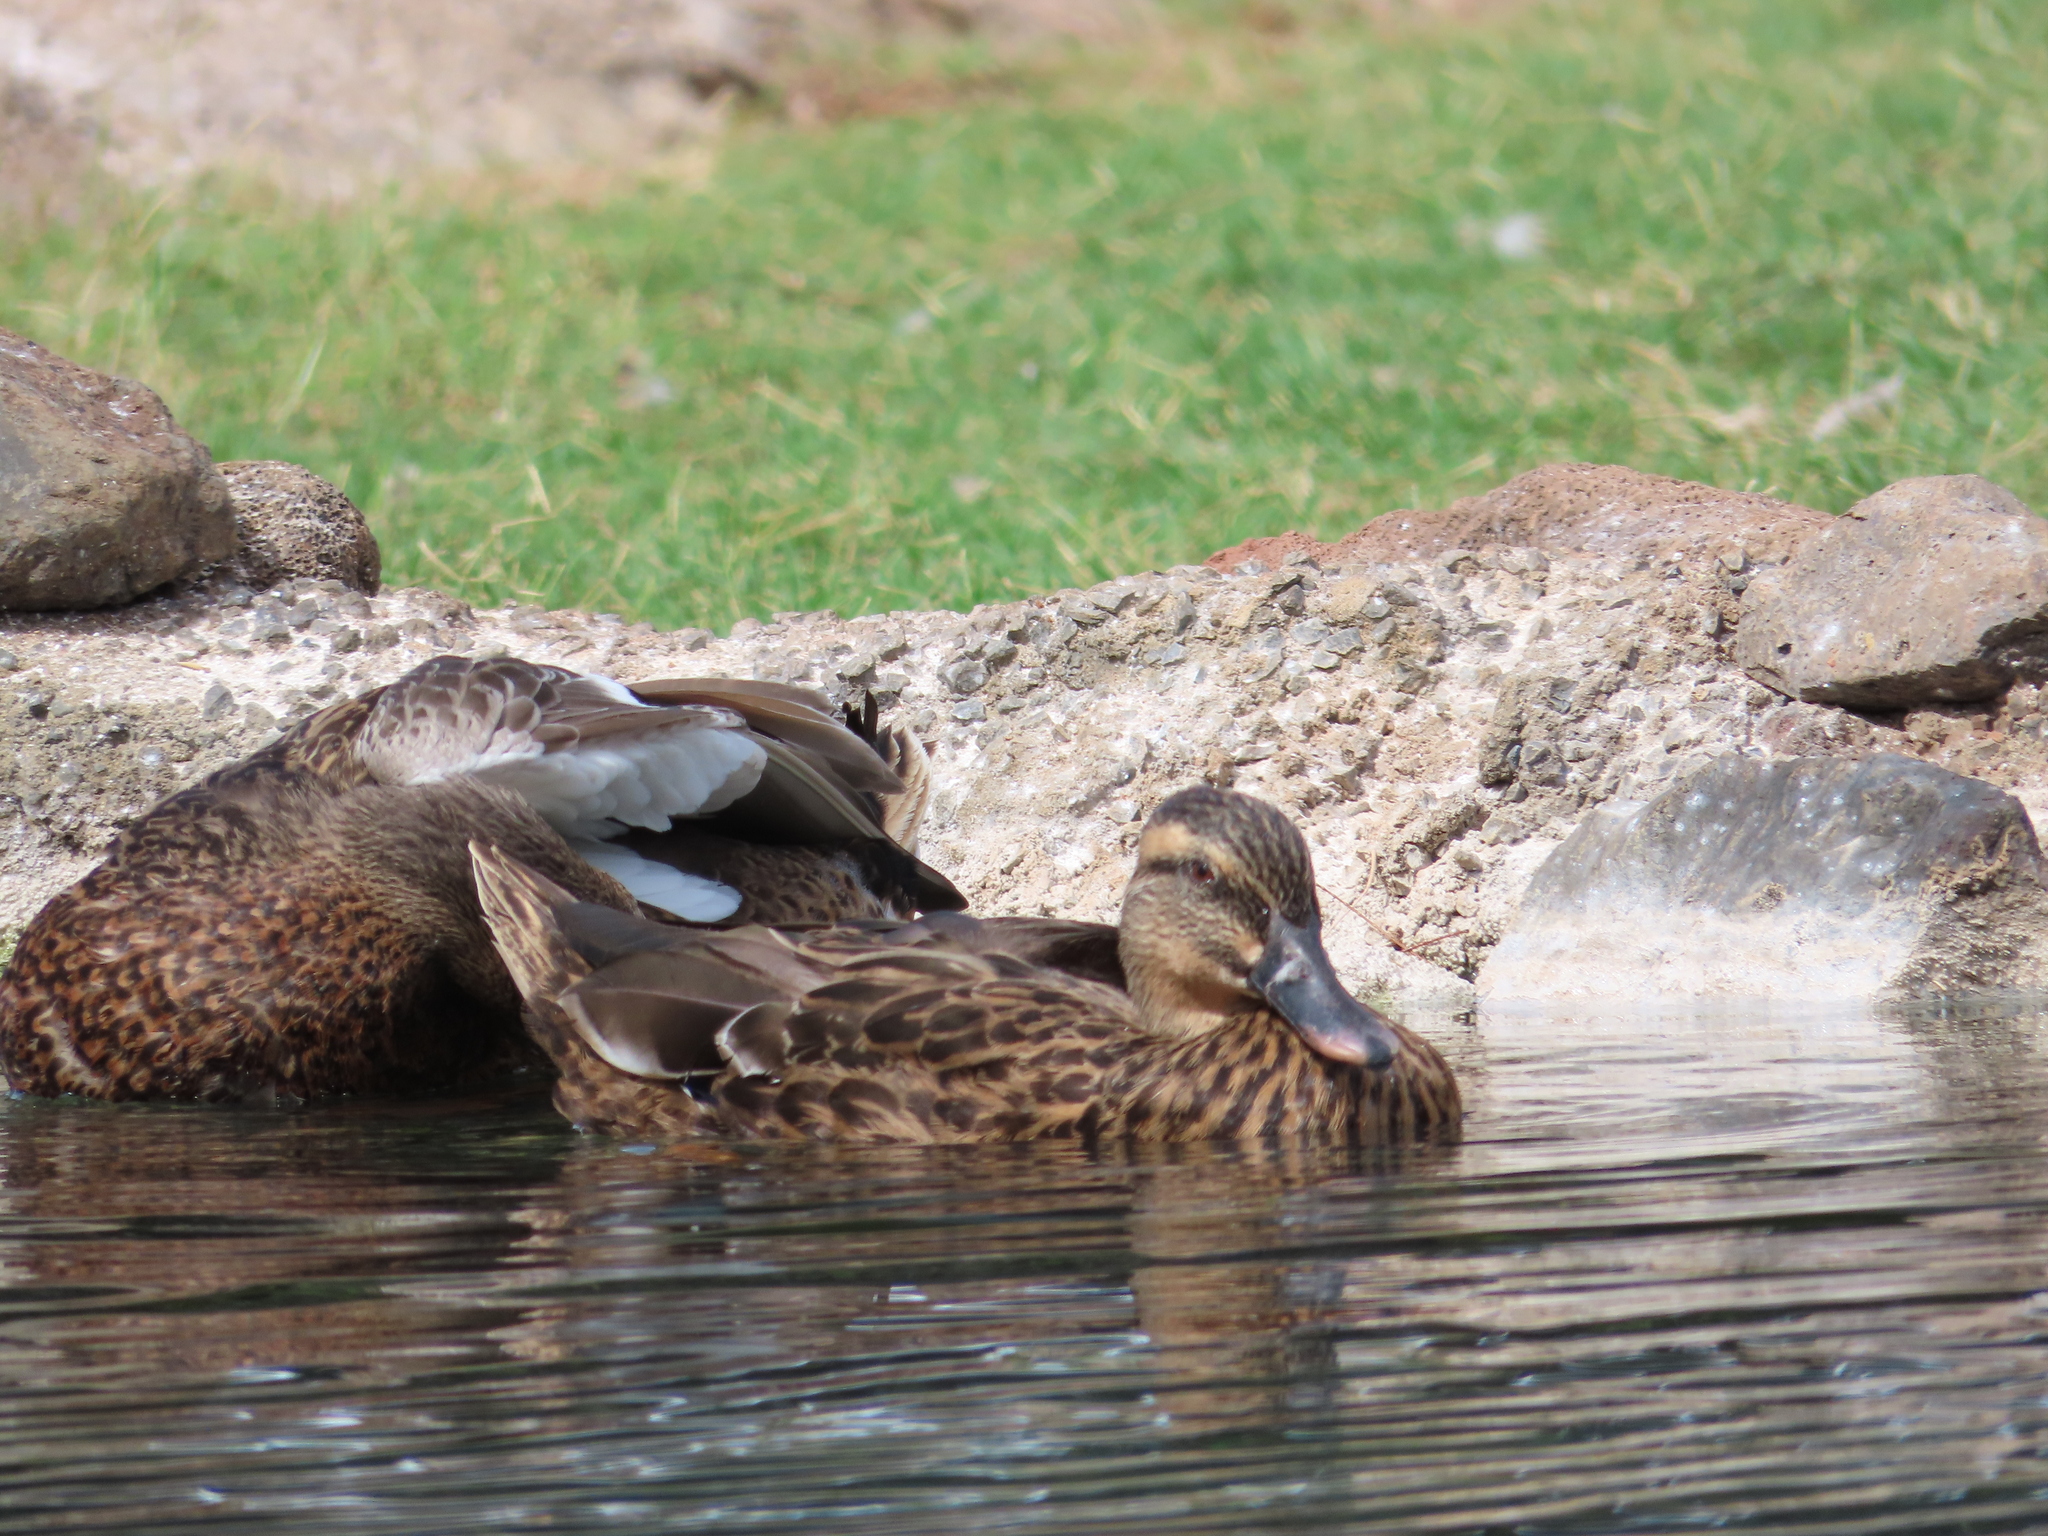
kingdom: Animalia
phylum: Chordata
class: Aves
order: Anseriformes
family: Anatidae
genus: Anas
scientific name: Anas platyrhynchos
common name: Mallard
